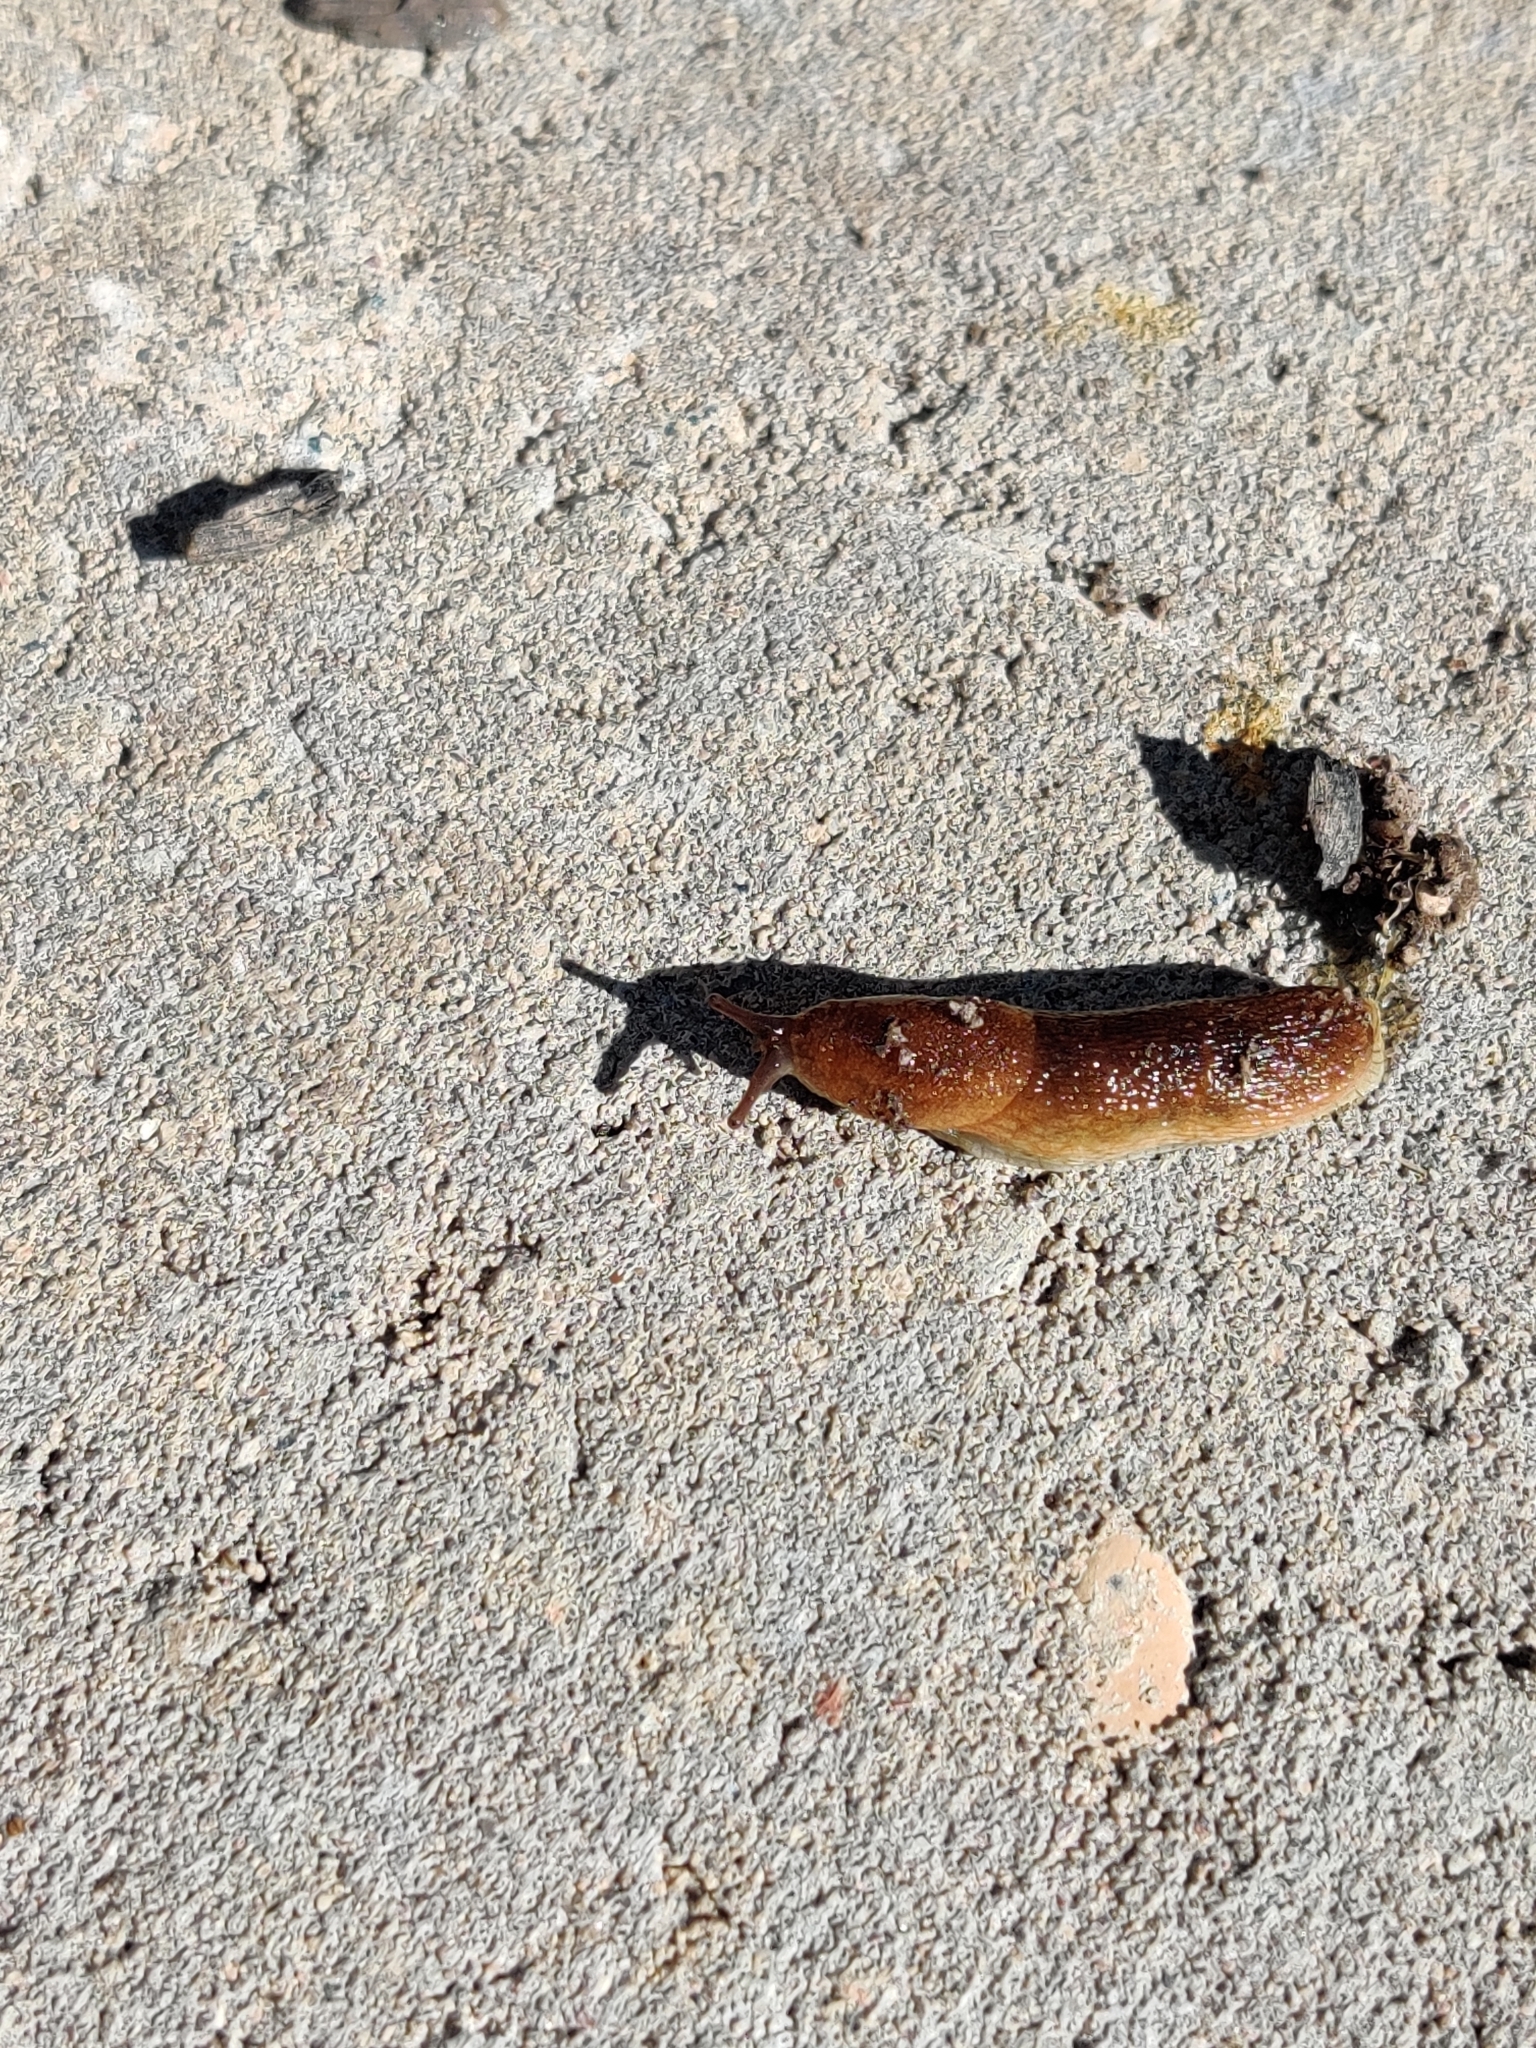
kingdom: Animalia
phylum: Mollusca
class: Gastropoda
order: Stylommatophora
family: Arionidae
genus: Arion
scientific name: Arion fuscus
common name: Northern dusky slug
